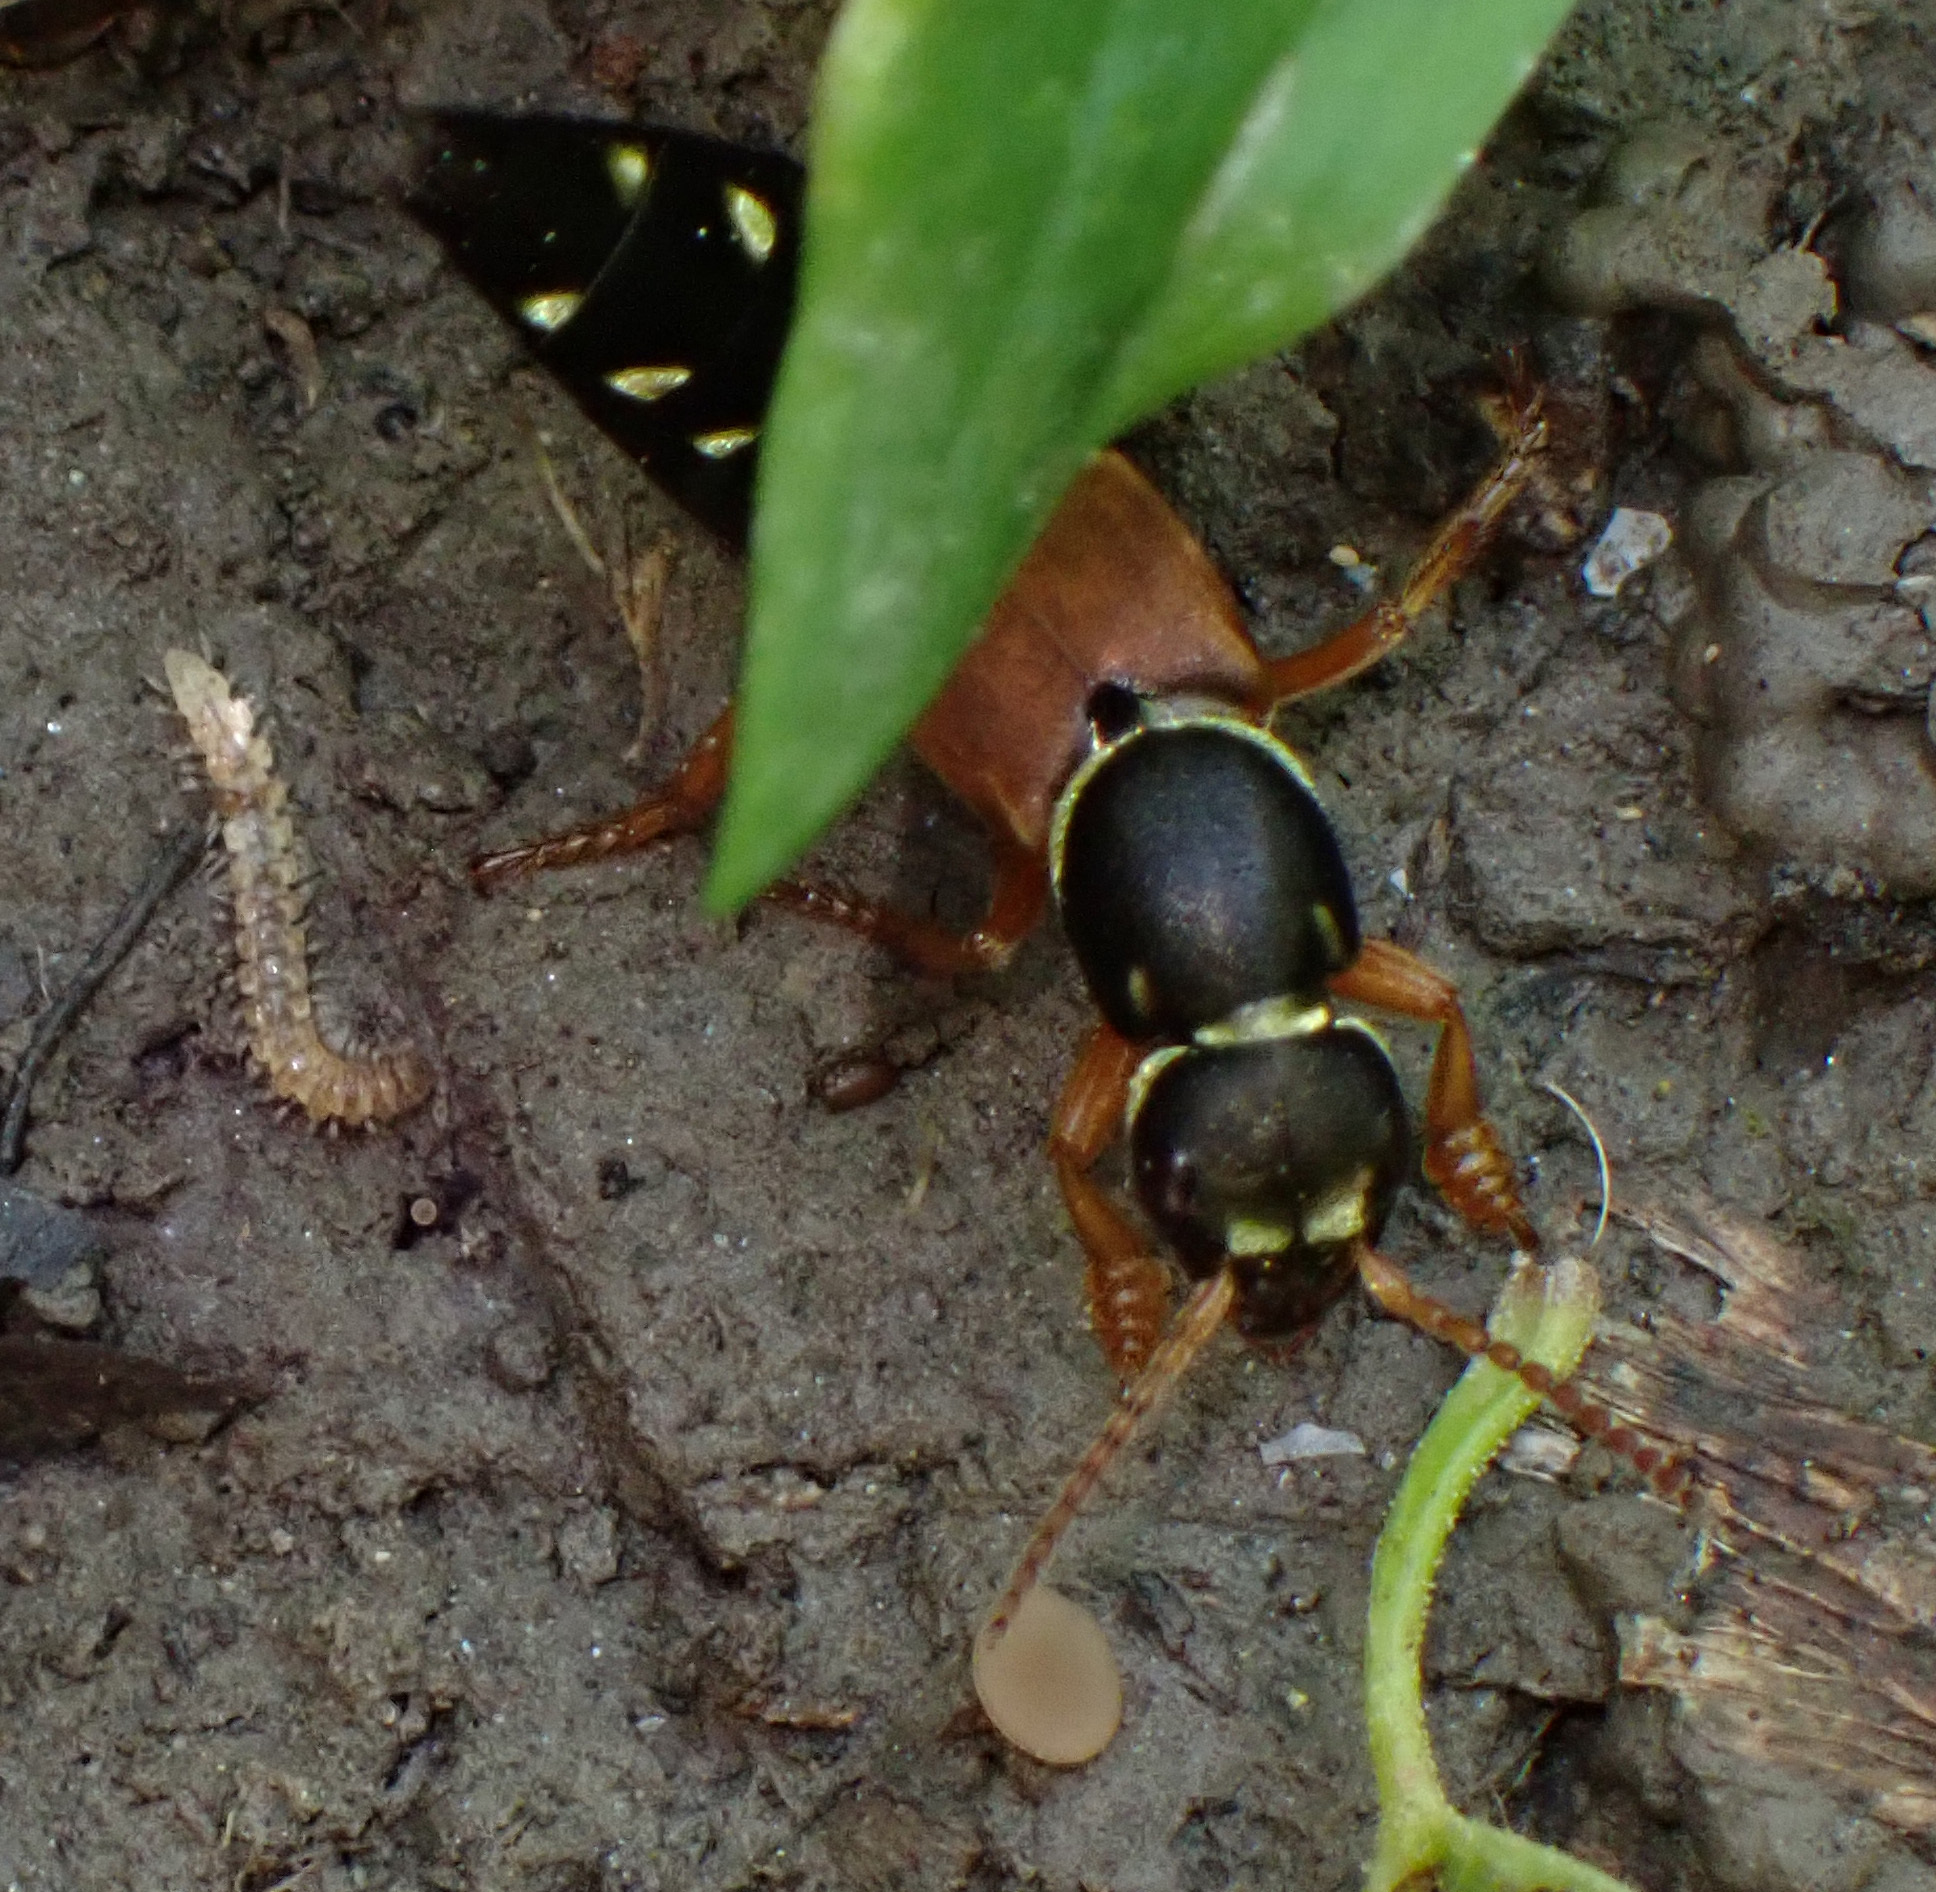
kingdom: Animalia
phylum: Arthropoda
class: Insecta
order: Coleoptera
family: Staphylinidae
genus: Staphylinus
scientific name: Staphylinus caesareus
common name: Staph beetle
